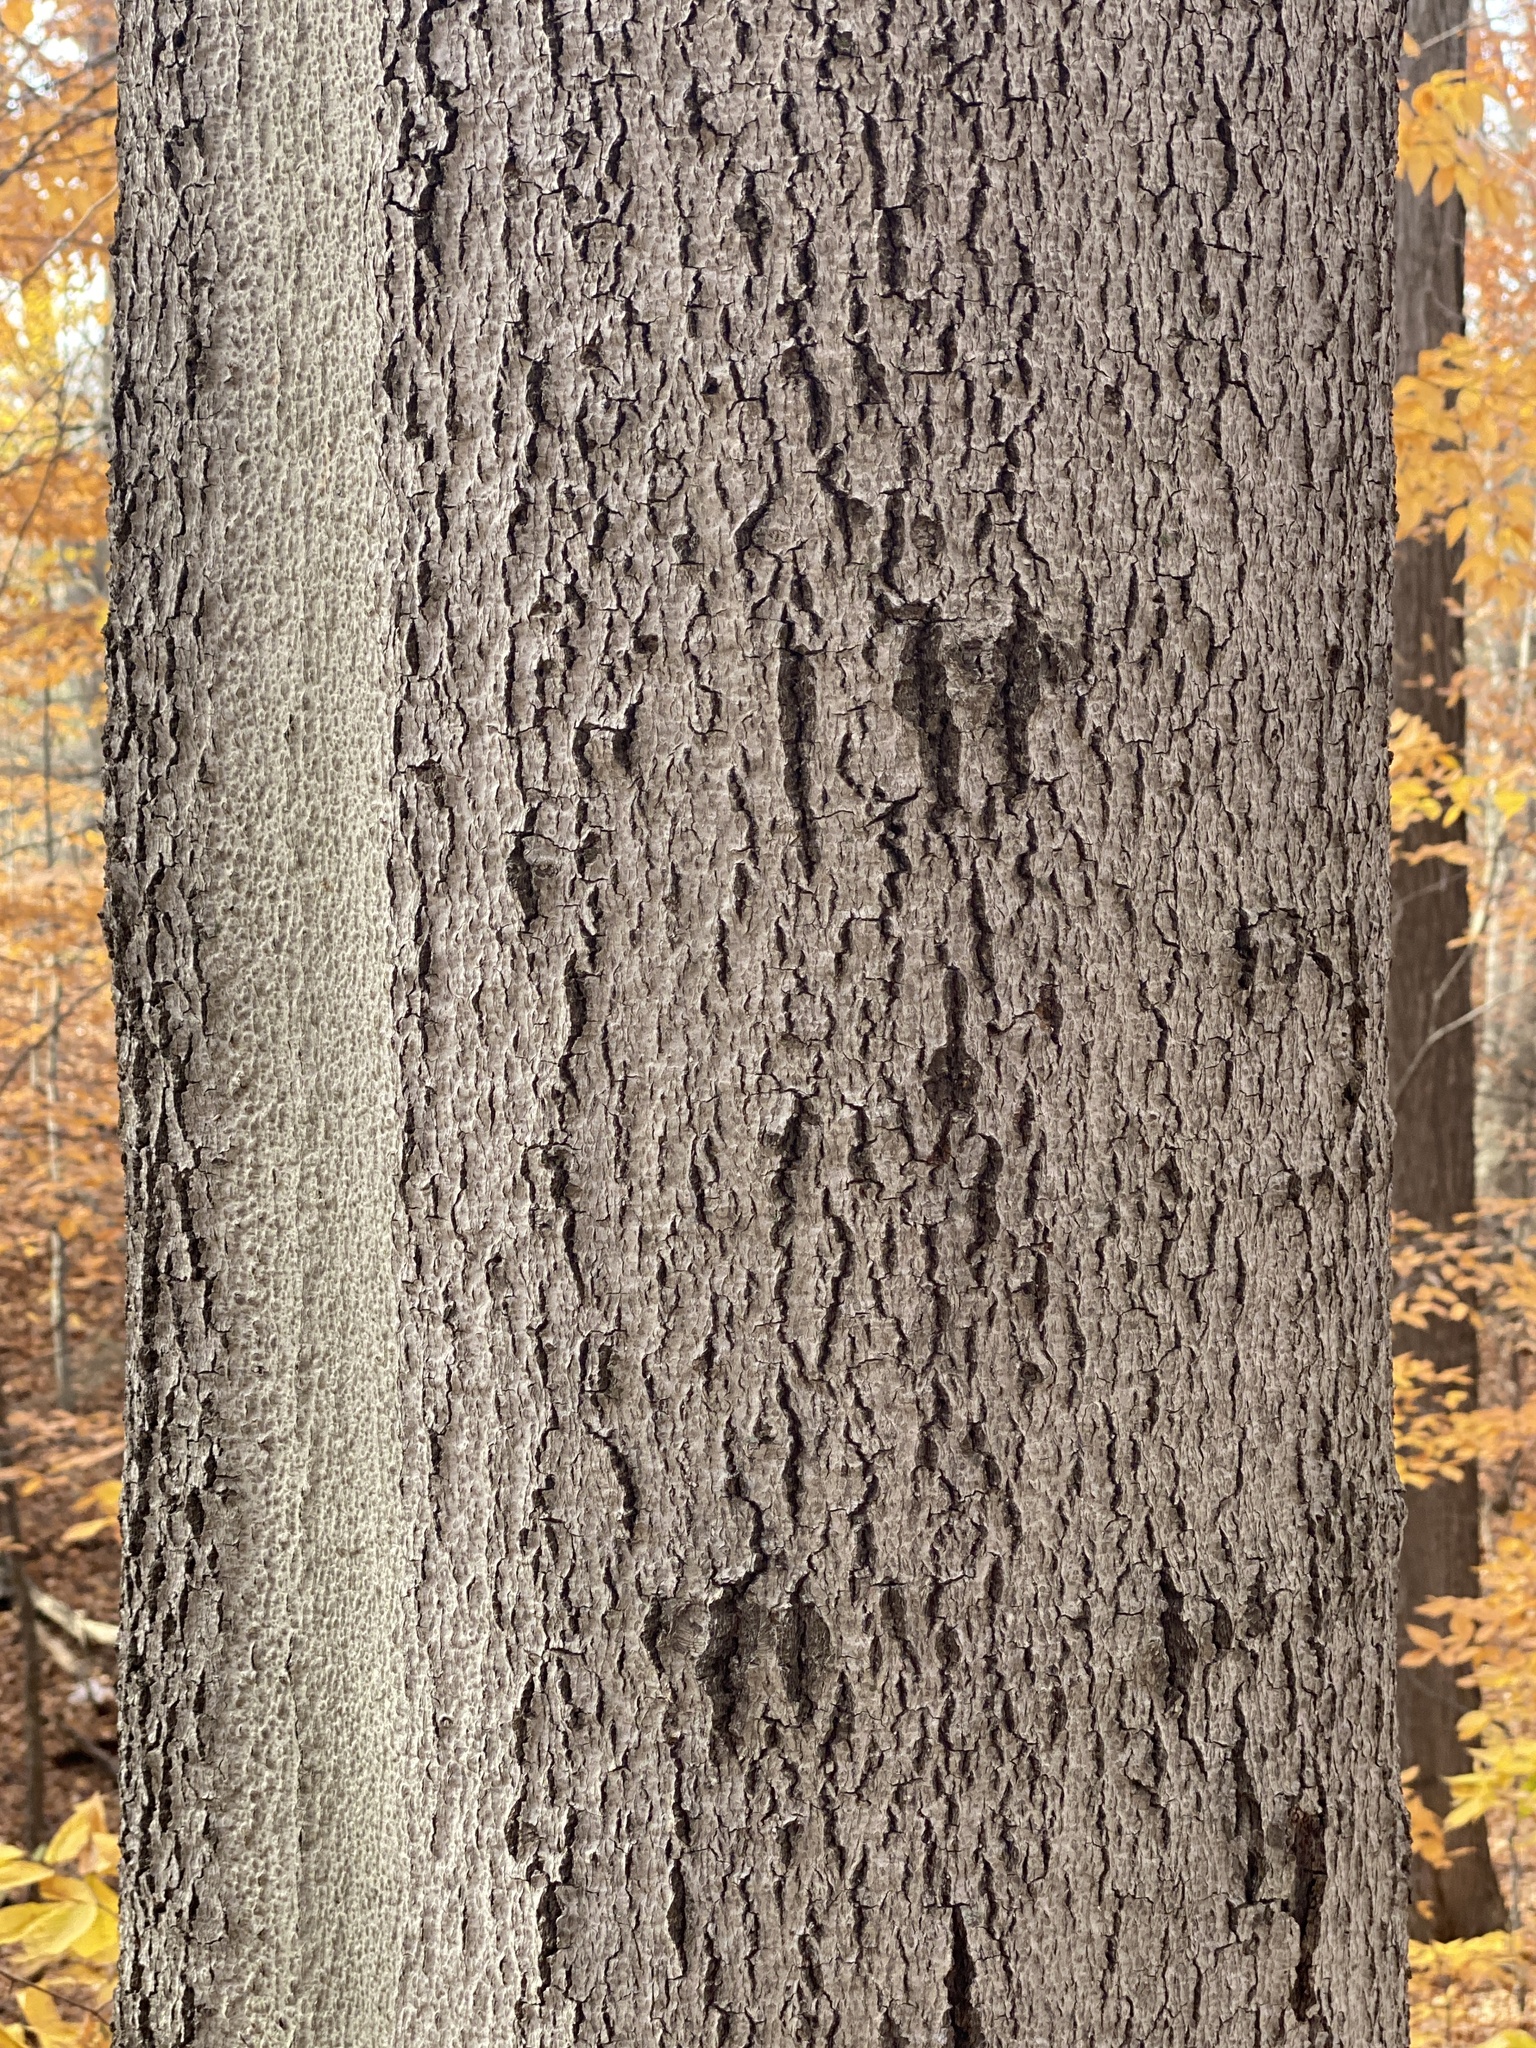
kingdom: Fungi
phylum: Ascomycota
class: Sordariomycetes
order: Hypocreales
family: Nectriaceae
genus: Neonectria
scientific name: Neonectria faginata
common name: Beech bark canker
